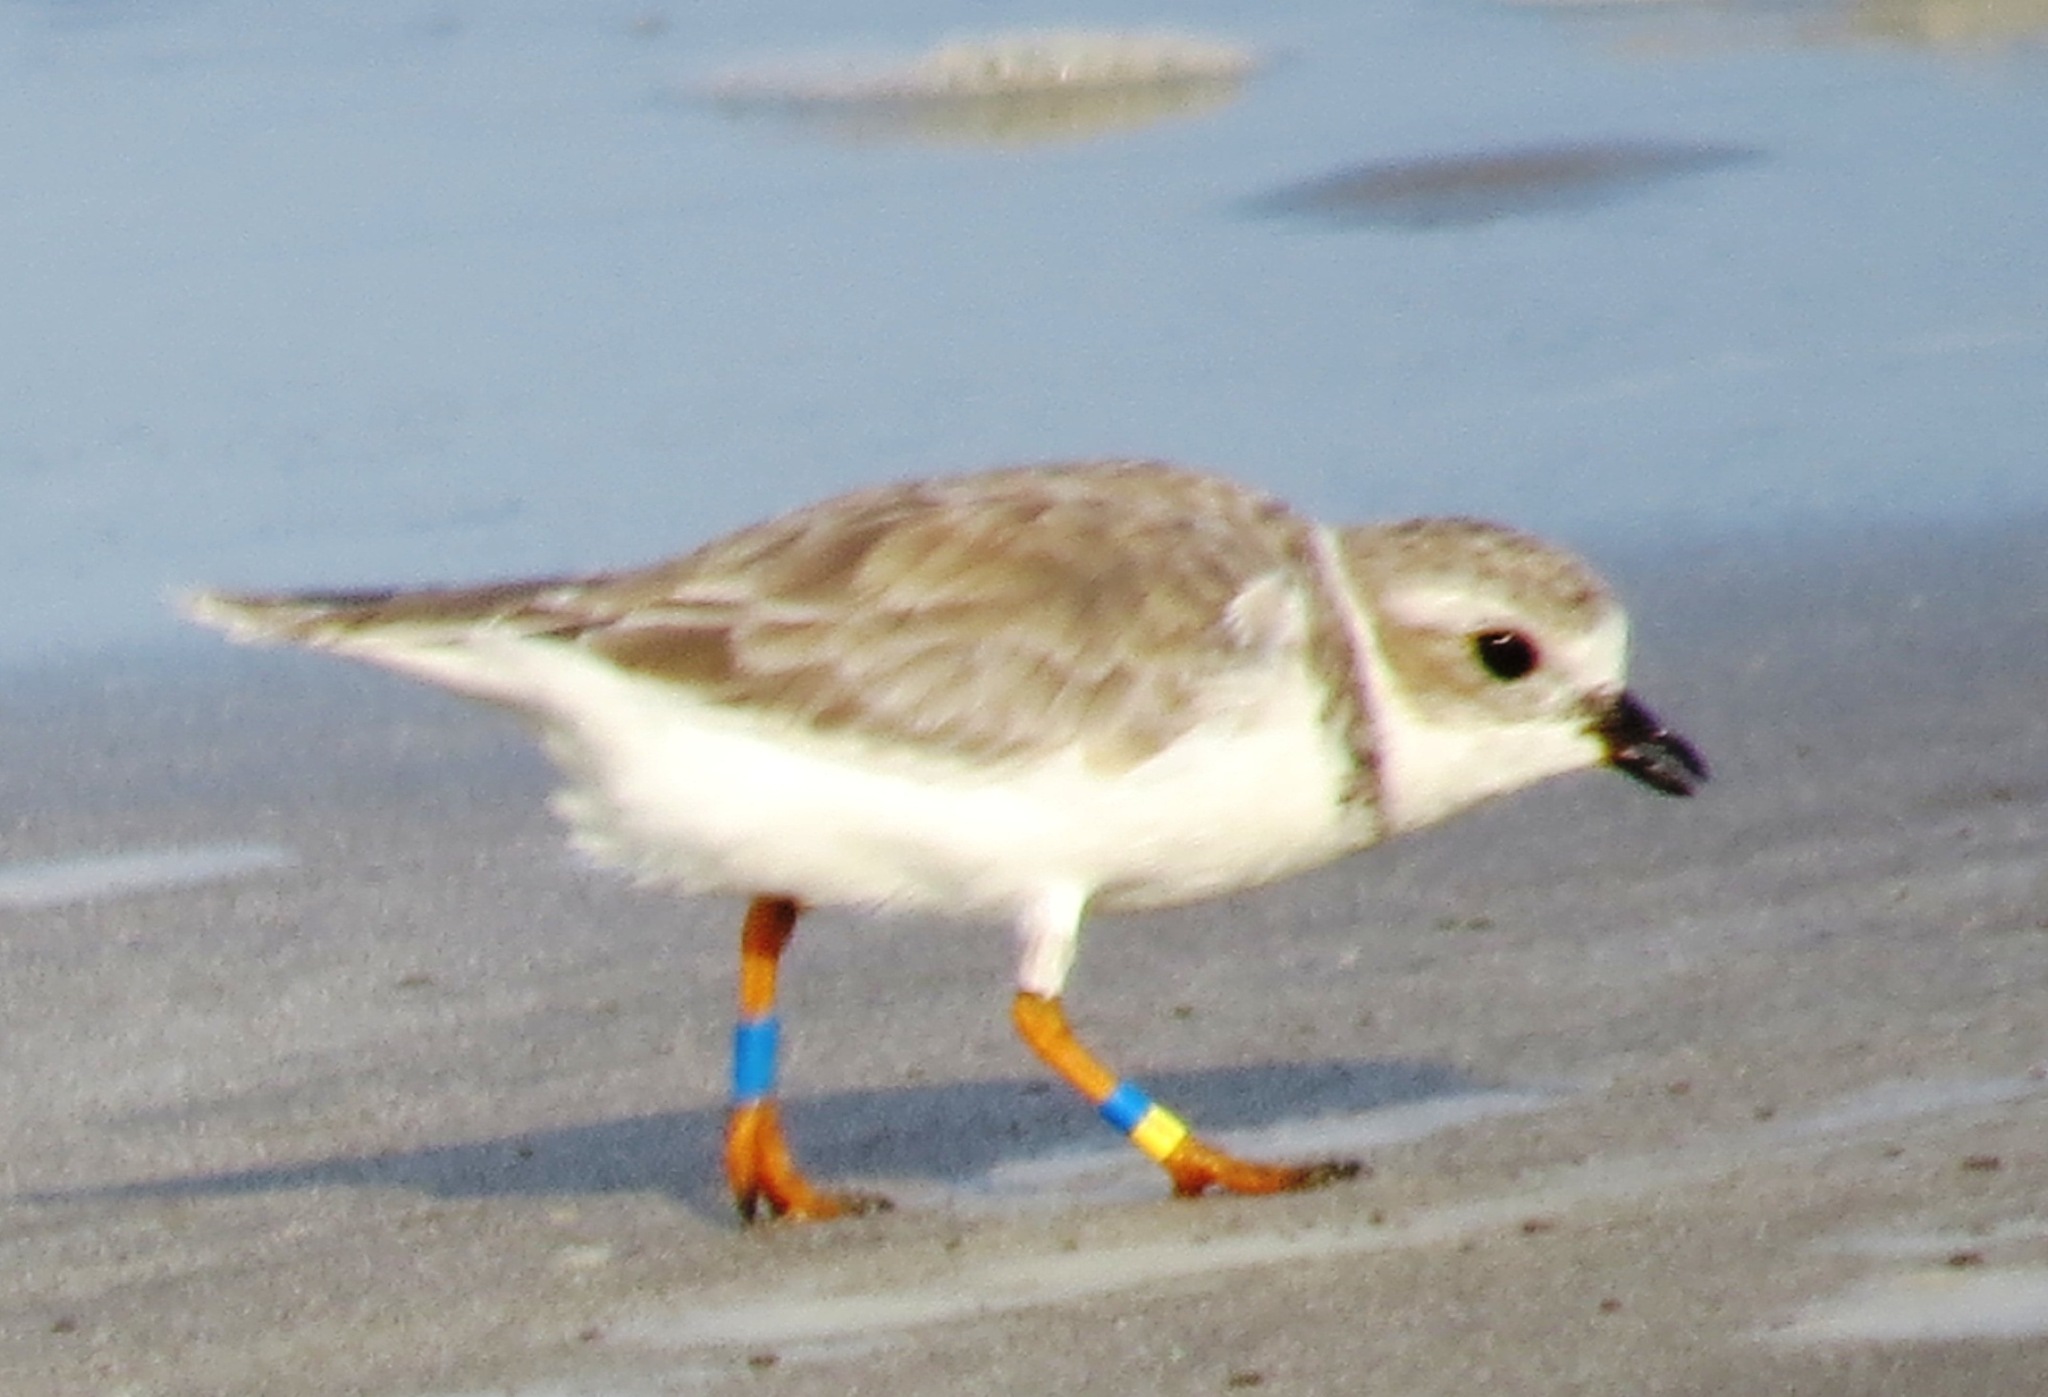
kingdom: Animalia
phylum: Chordata
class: Aves
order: Charadriiformes
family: Charadriidae
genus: Charadrius
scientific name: Charadrius melodus
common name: Piping plover
